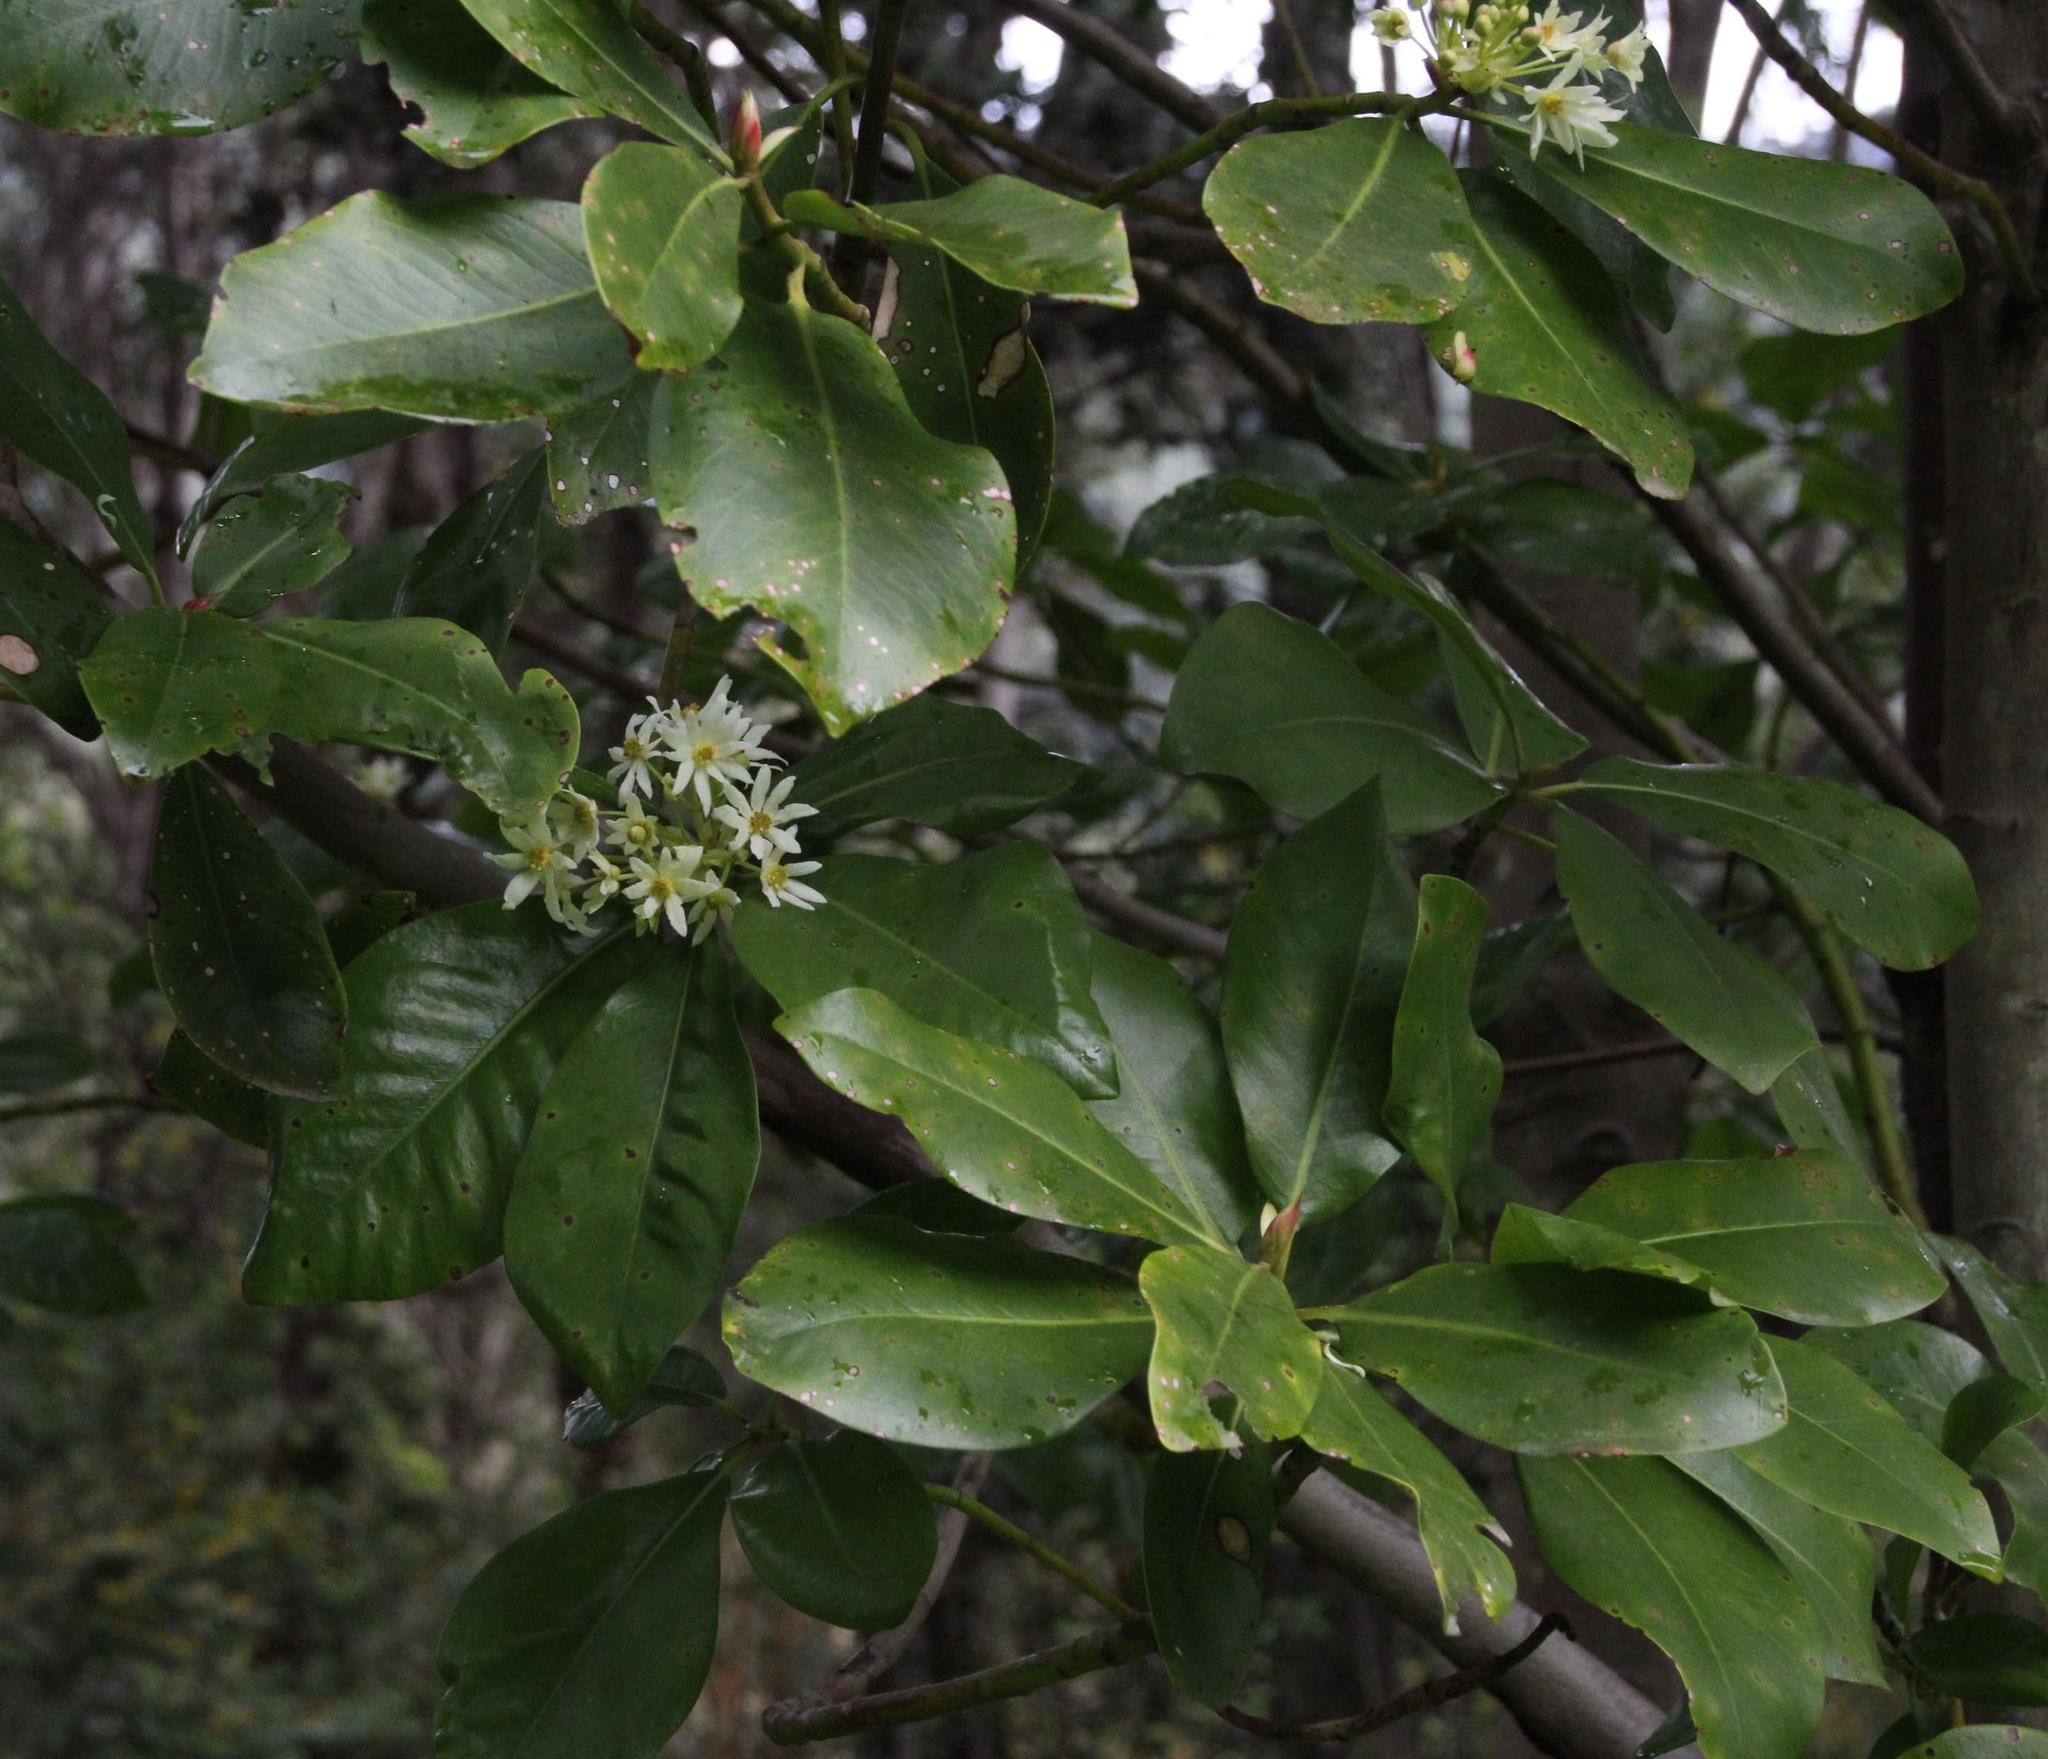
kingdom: Plantae
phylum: Tracheophyta
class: Magnoliopsida
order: Canellales
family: Winteraceae
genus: Drimys
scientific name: Drimys winteri
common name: Winter's-bark
